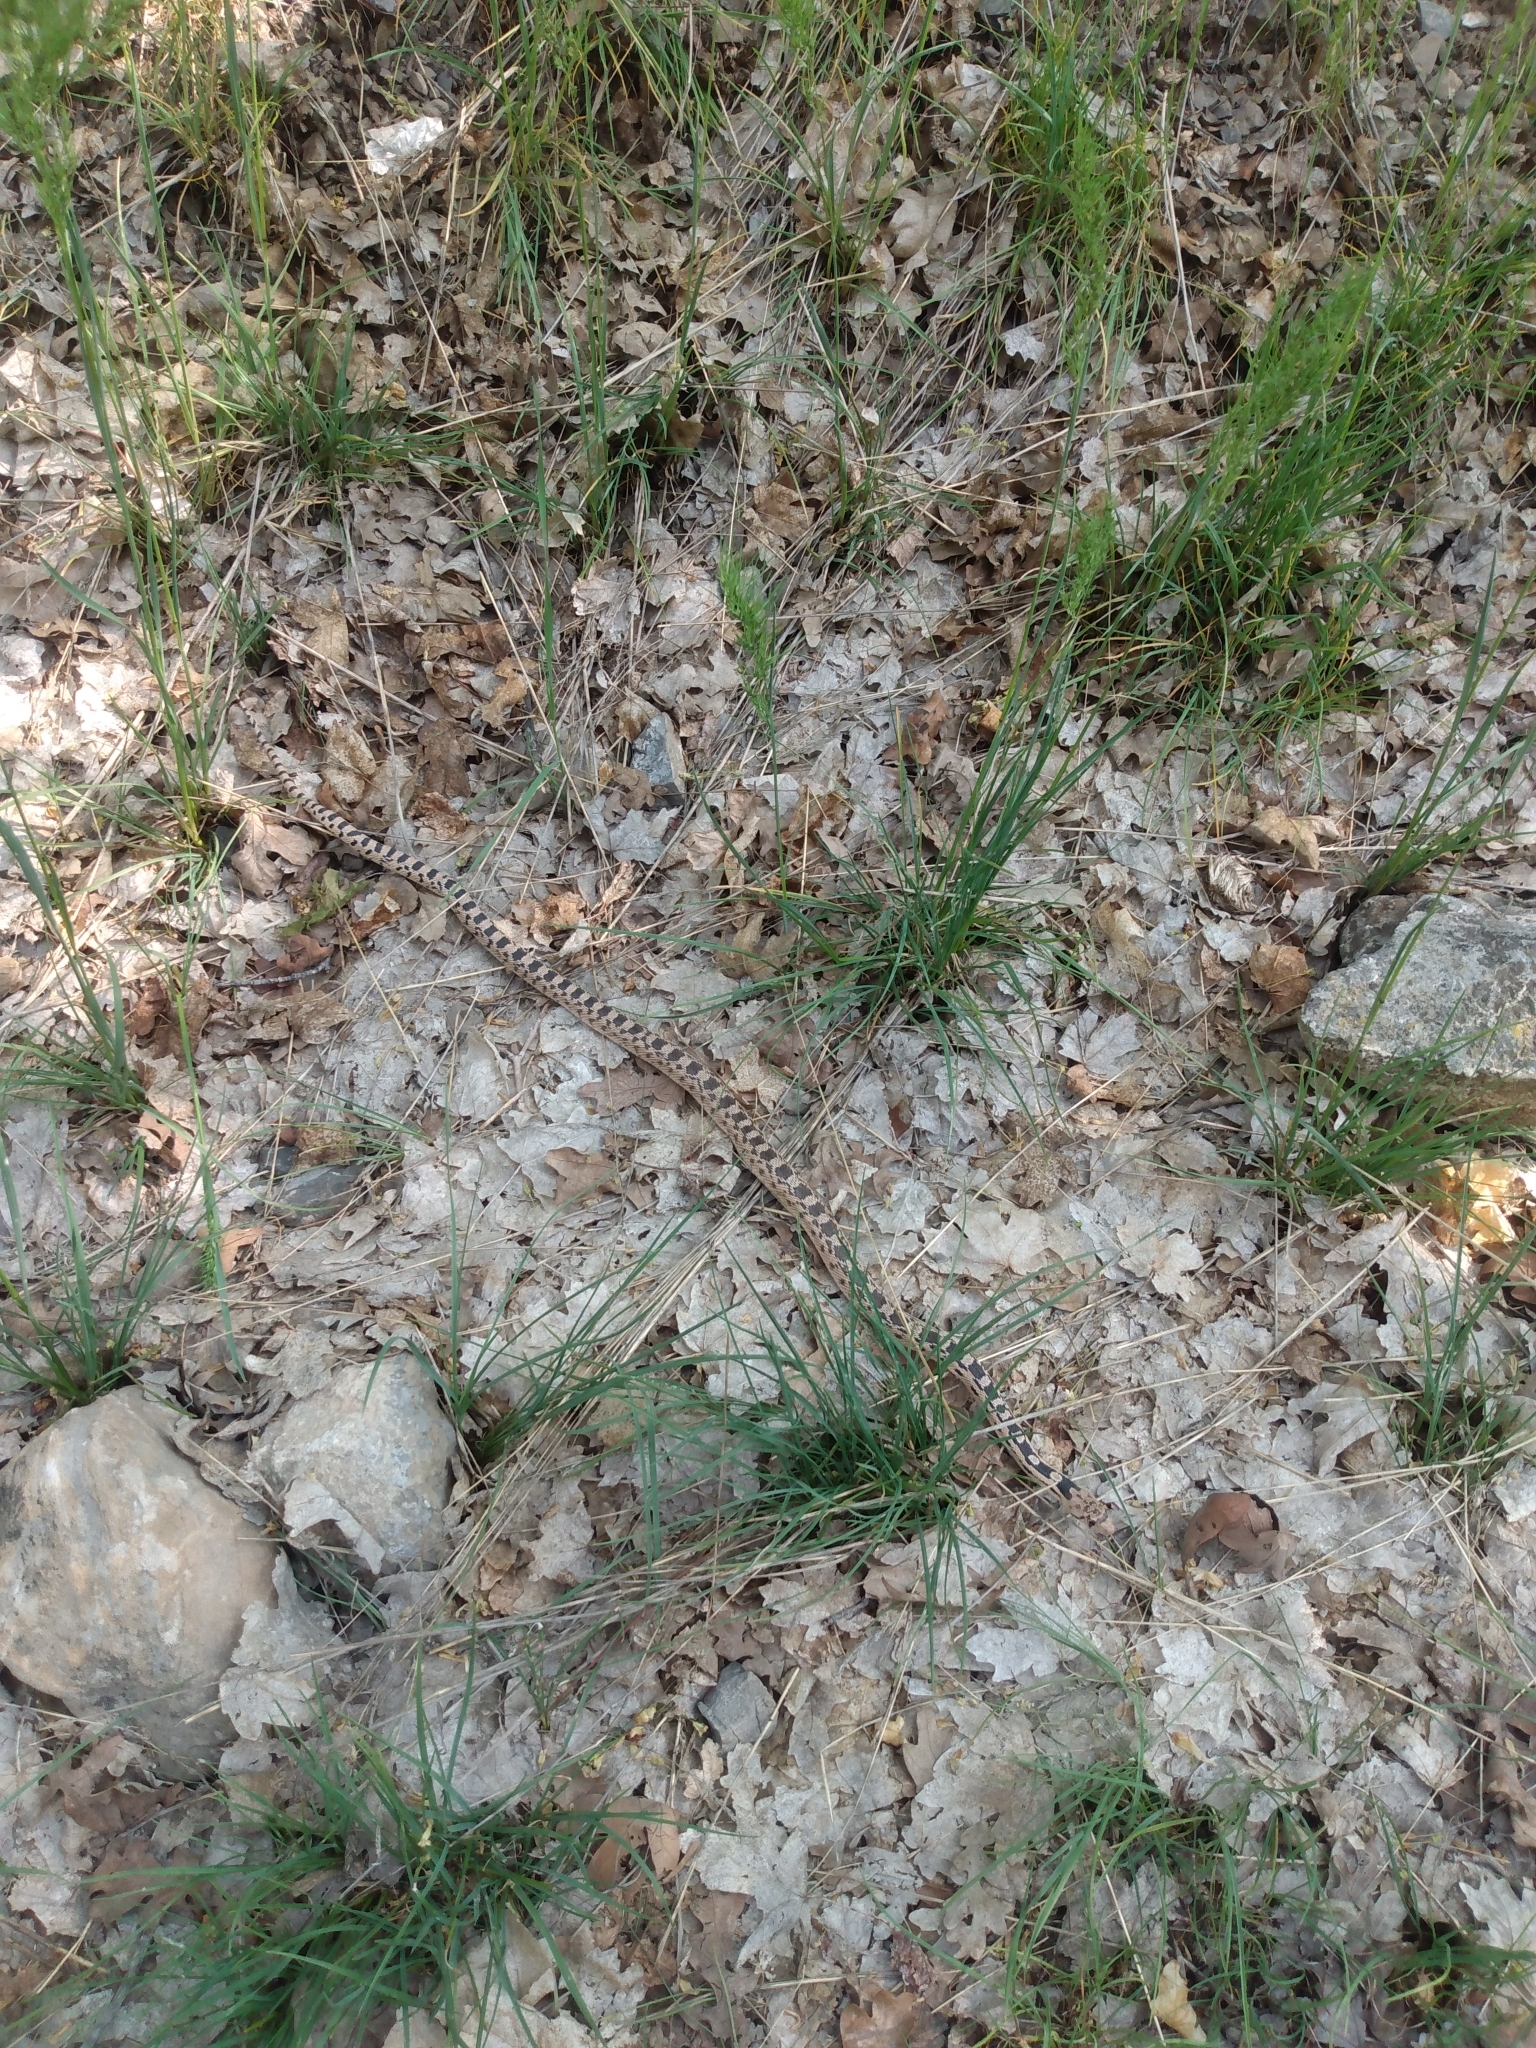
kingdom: Animalia
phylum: Chordata
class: Squamata
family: Colubridae
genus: Pituophis
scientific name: Pituophis catenifer
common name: Gopher snake
